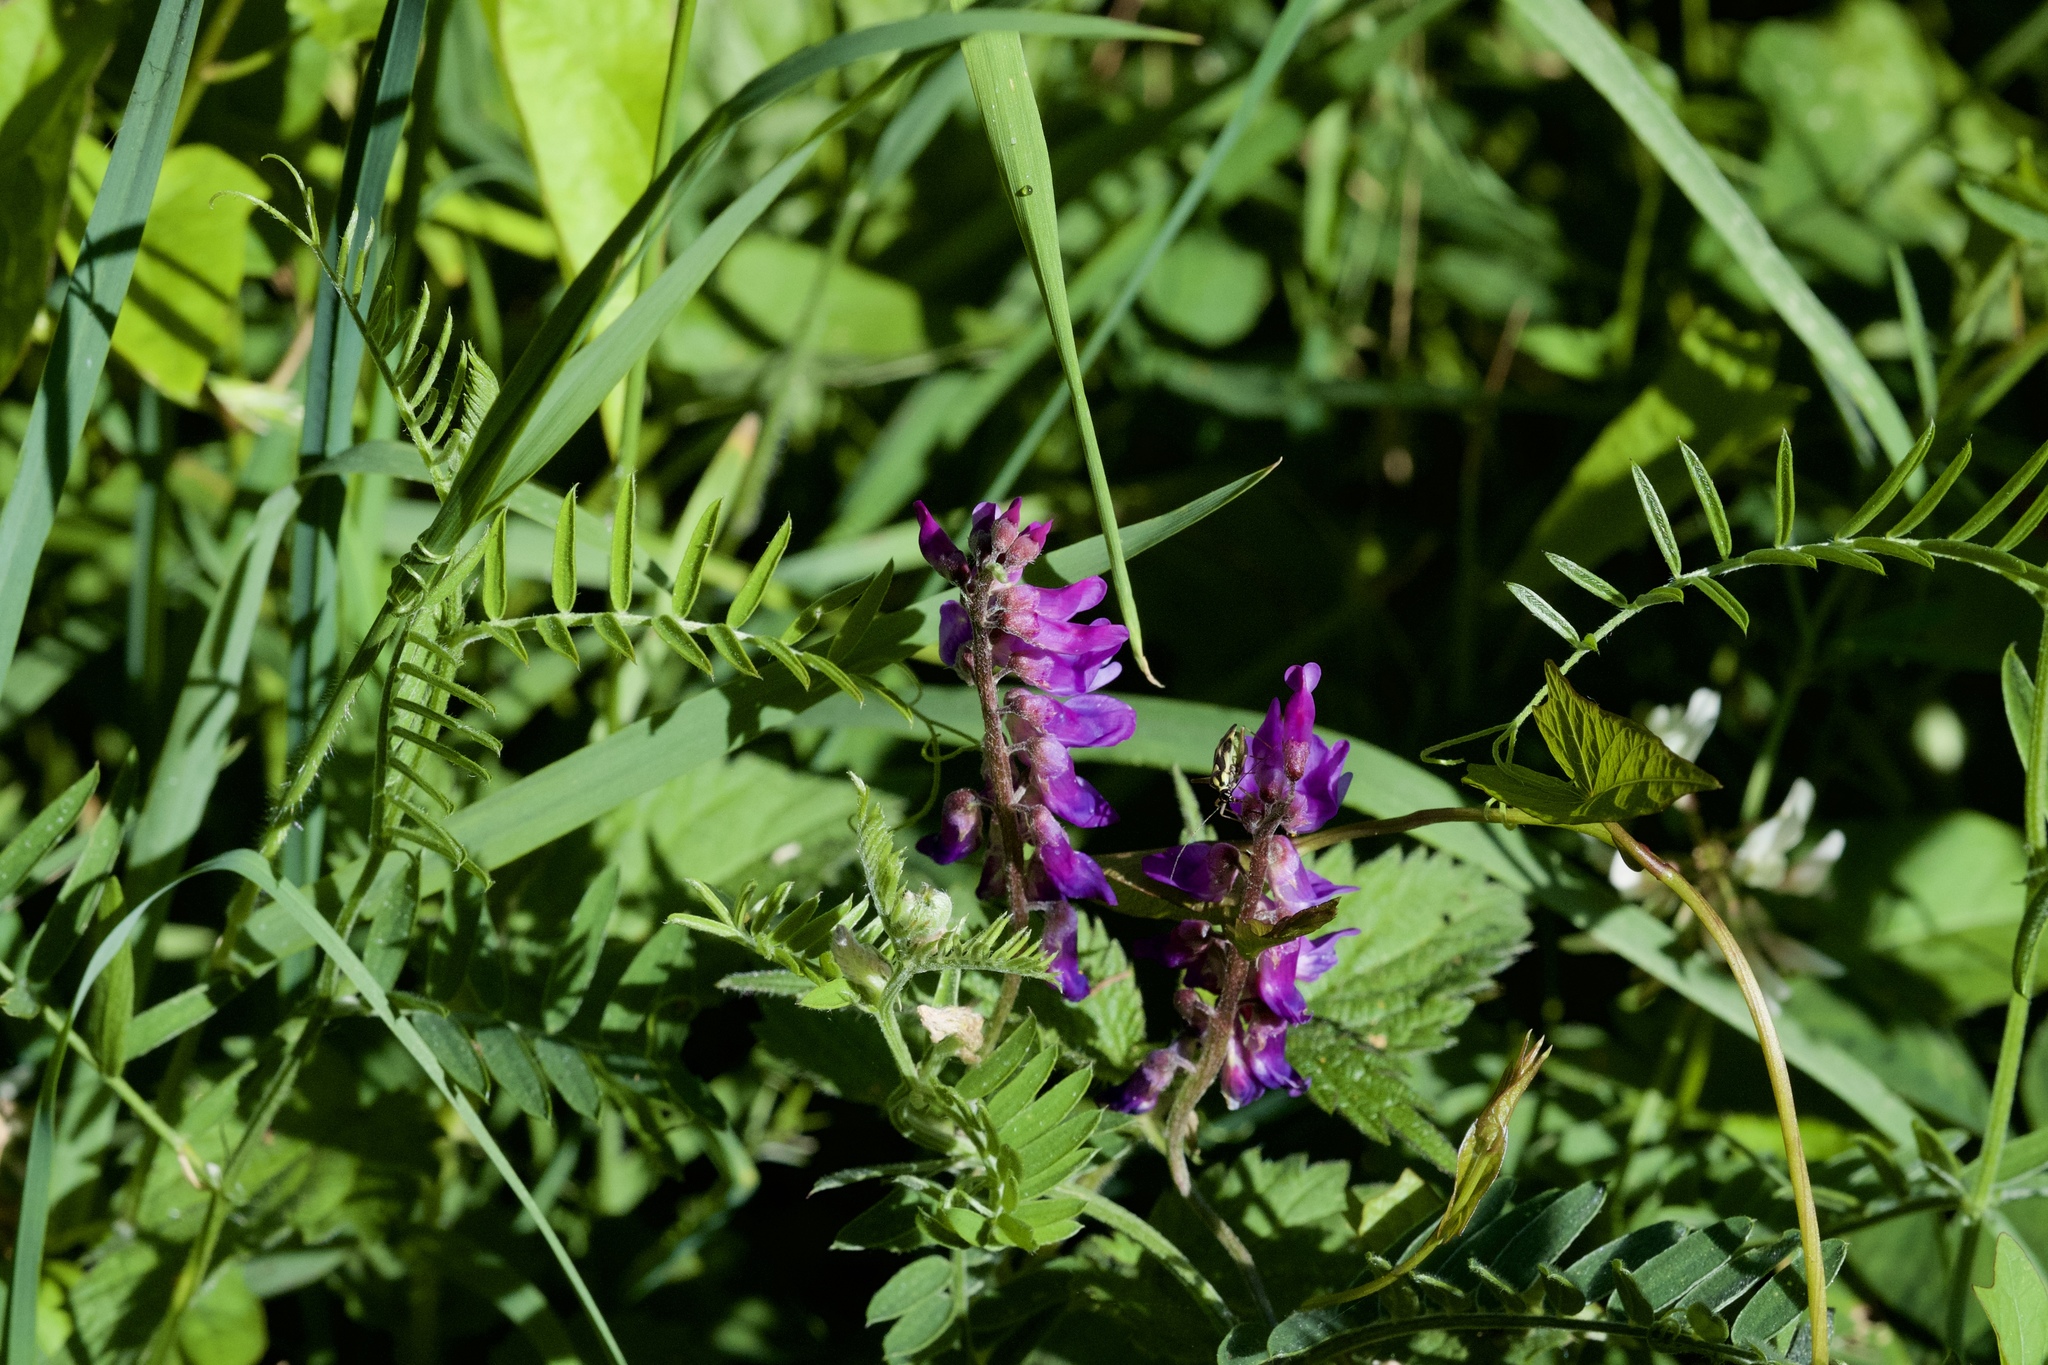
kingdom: Plantae
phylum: Tracheophyta
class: Magnoliopsida
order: Fabales
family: Fabaceae
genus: Vicia
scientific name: Vicia cracca
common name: Bird vetch
